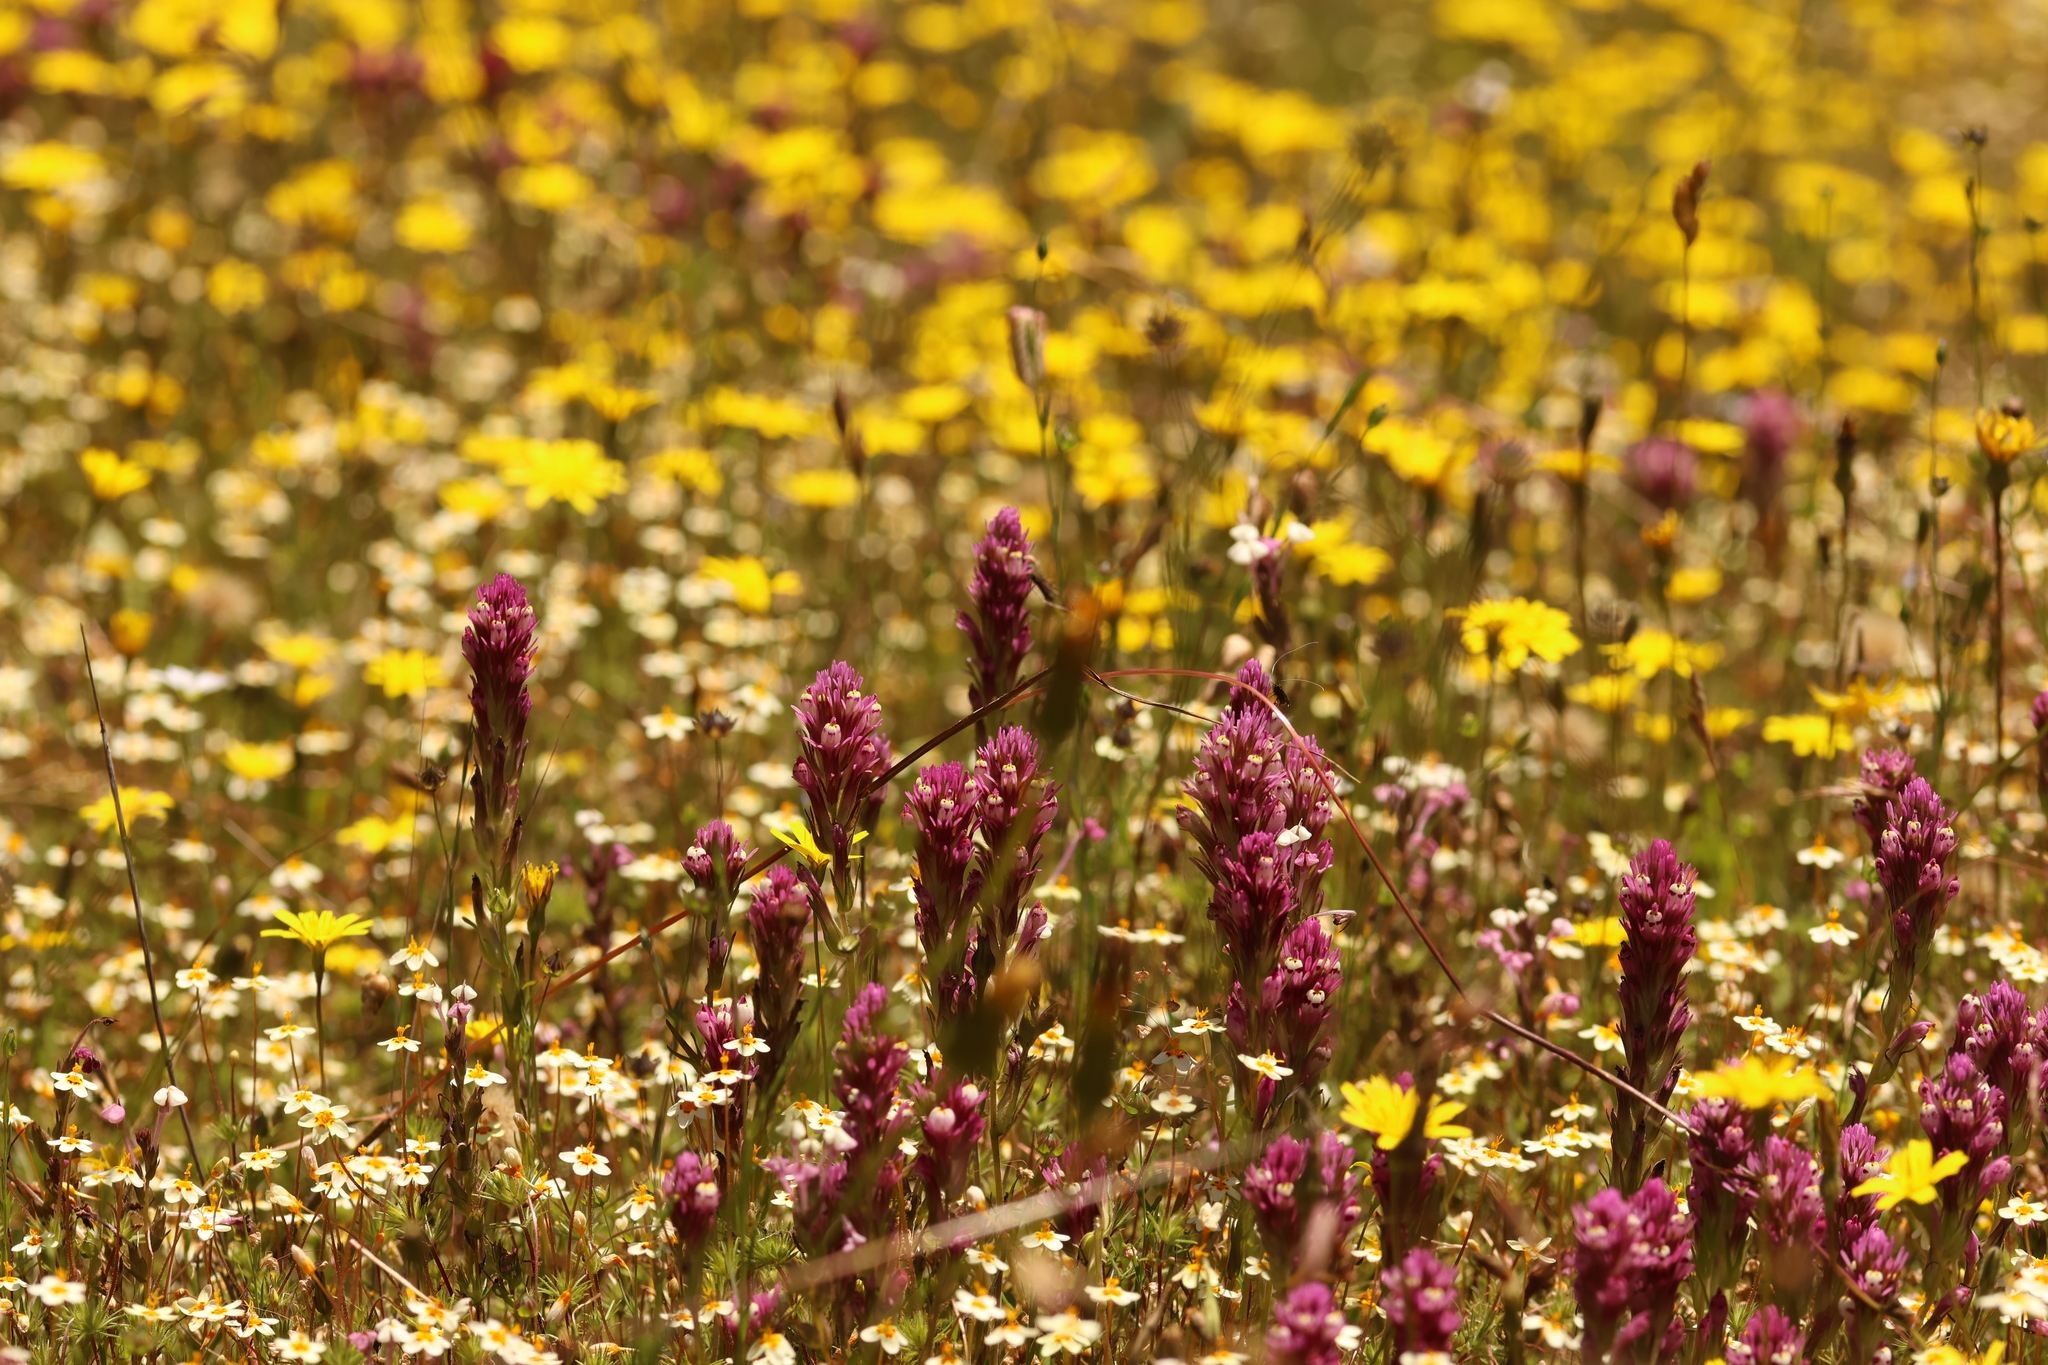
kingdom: Plantae
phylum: Tracheophyta
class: Magnoliopsida
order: Lamiales
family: Orobanchaceae
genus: Castilleja
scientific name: Castilleja densiflora
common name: Dense-flower indian paintbrush
